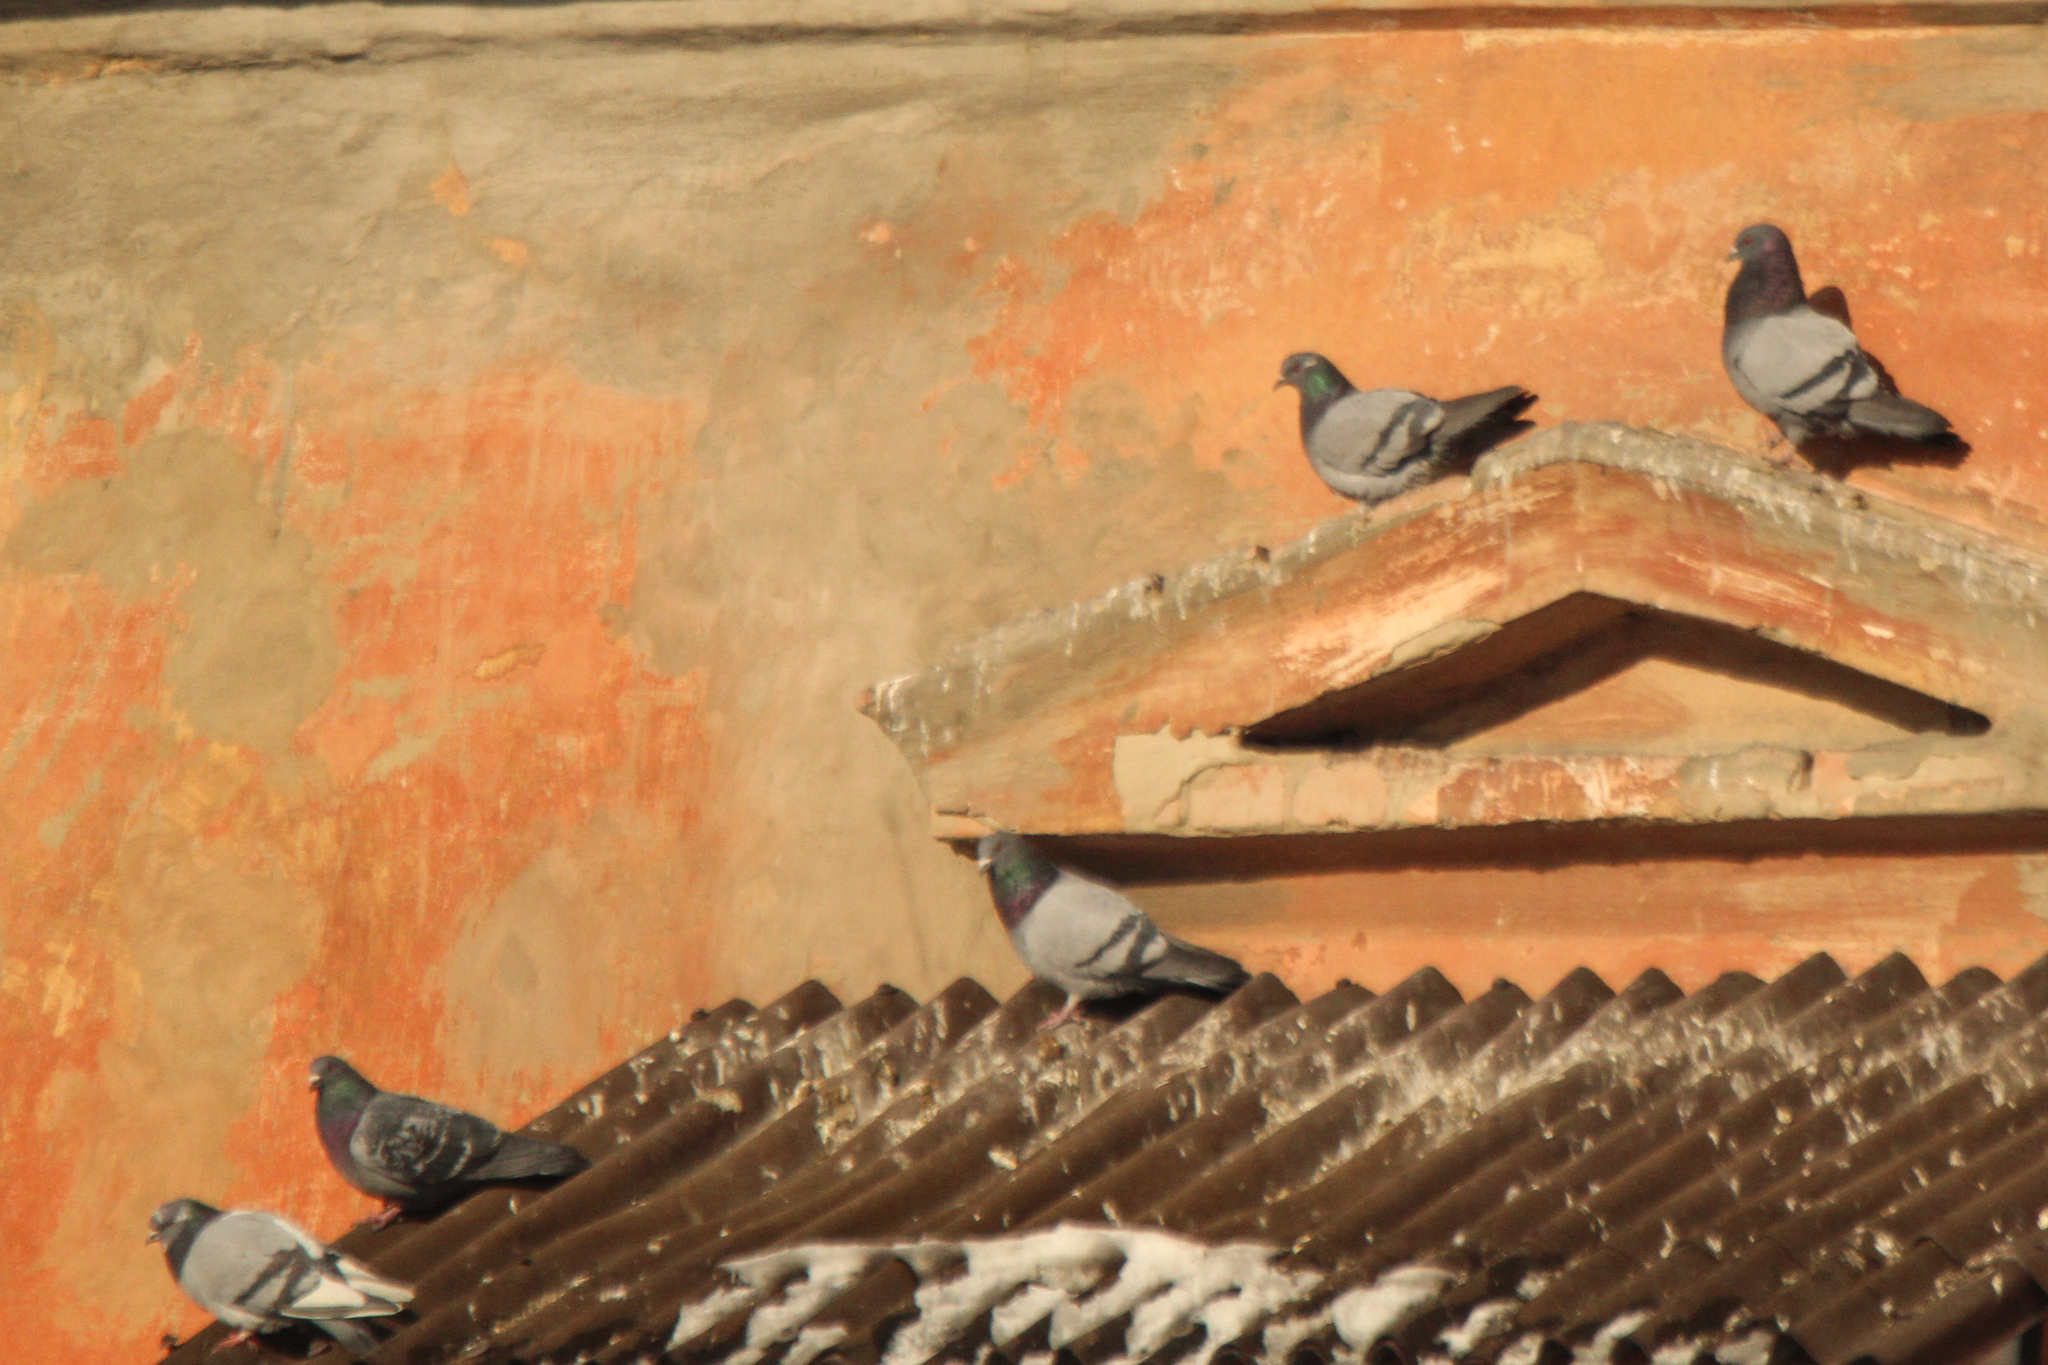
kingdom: Animalia
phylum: Chordata
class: Aves
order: Columbiformes
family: Columbidae
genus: Columba
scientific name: Columba livia
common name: Rock pigeon
